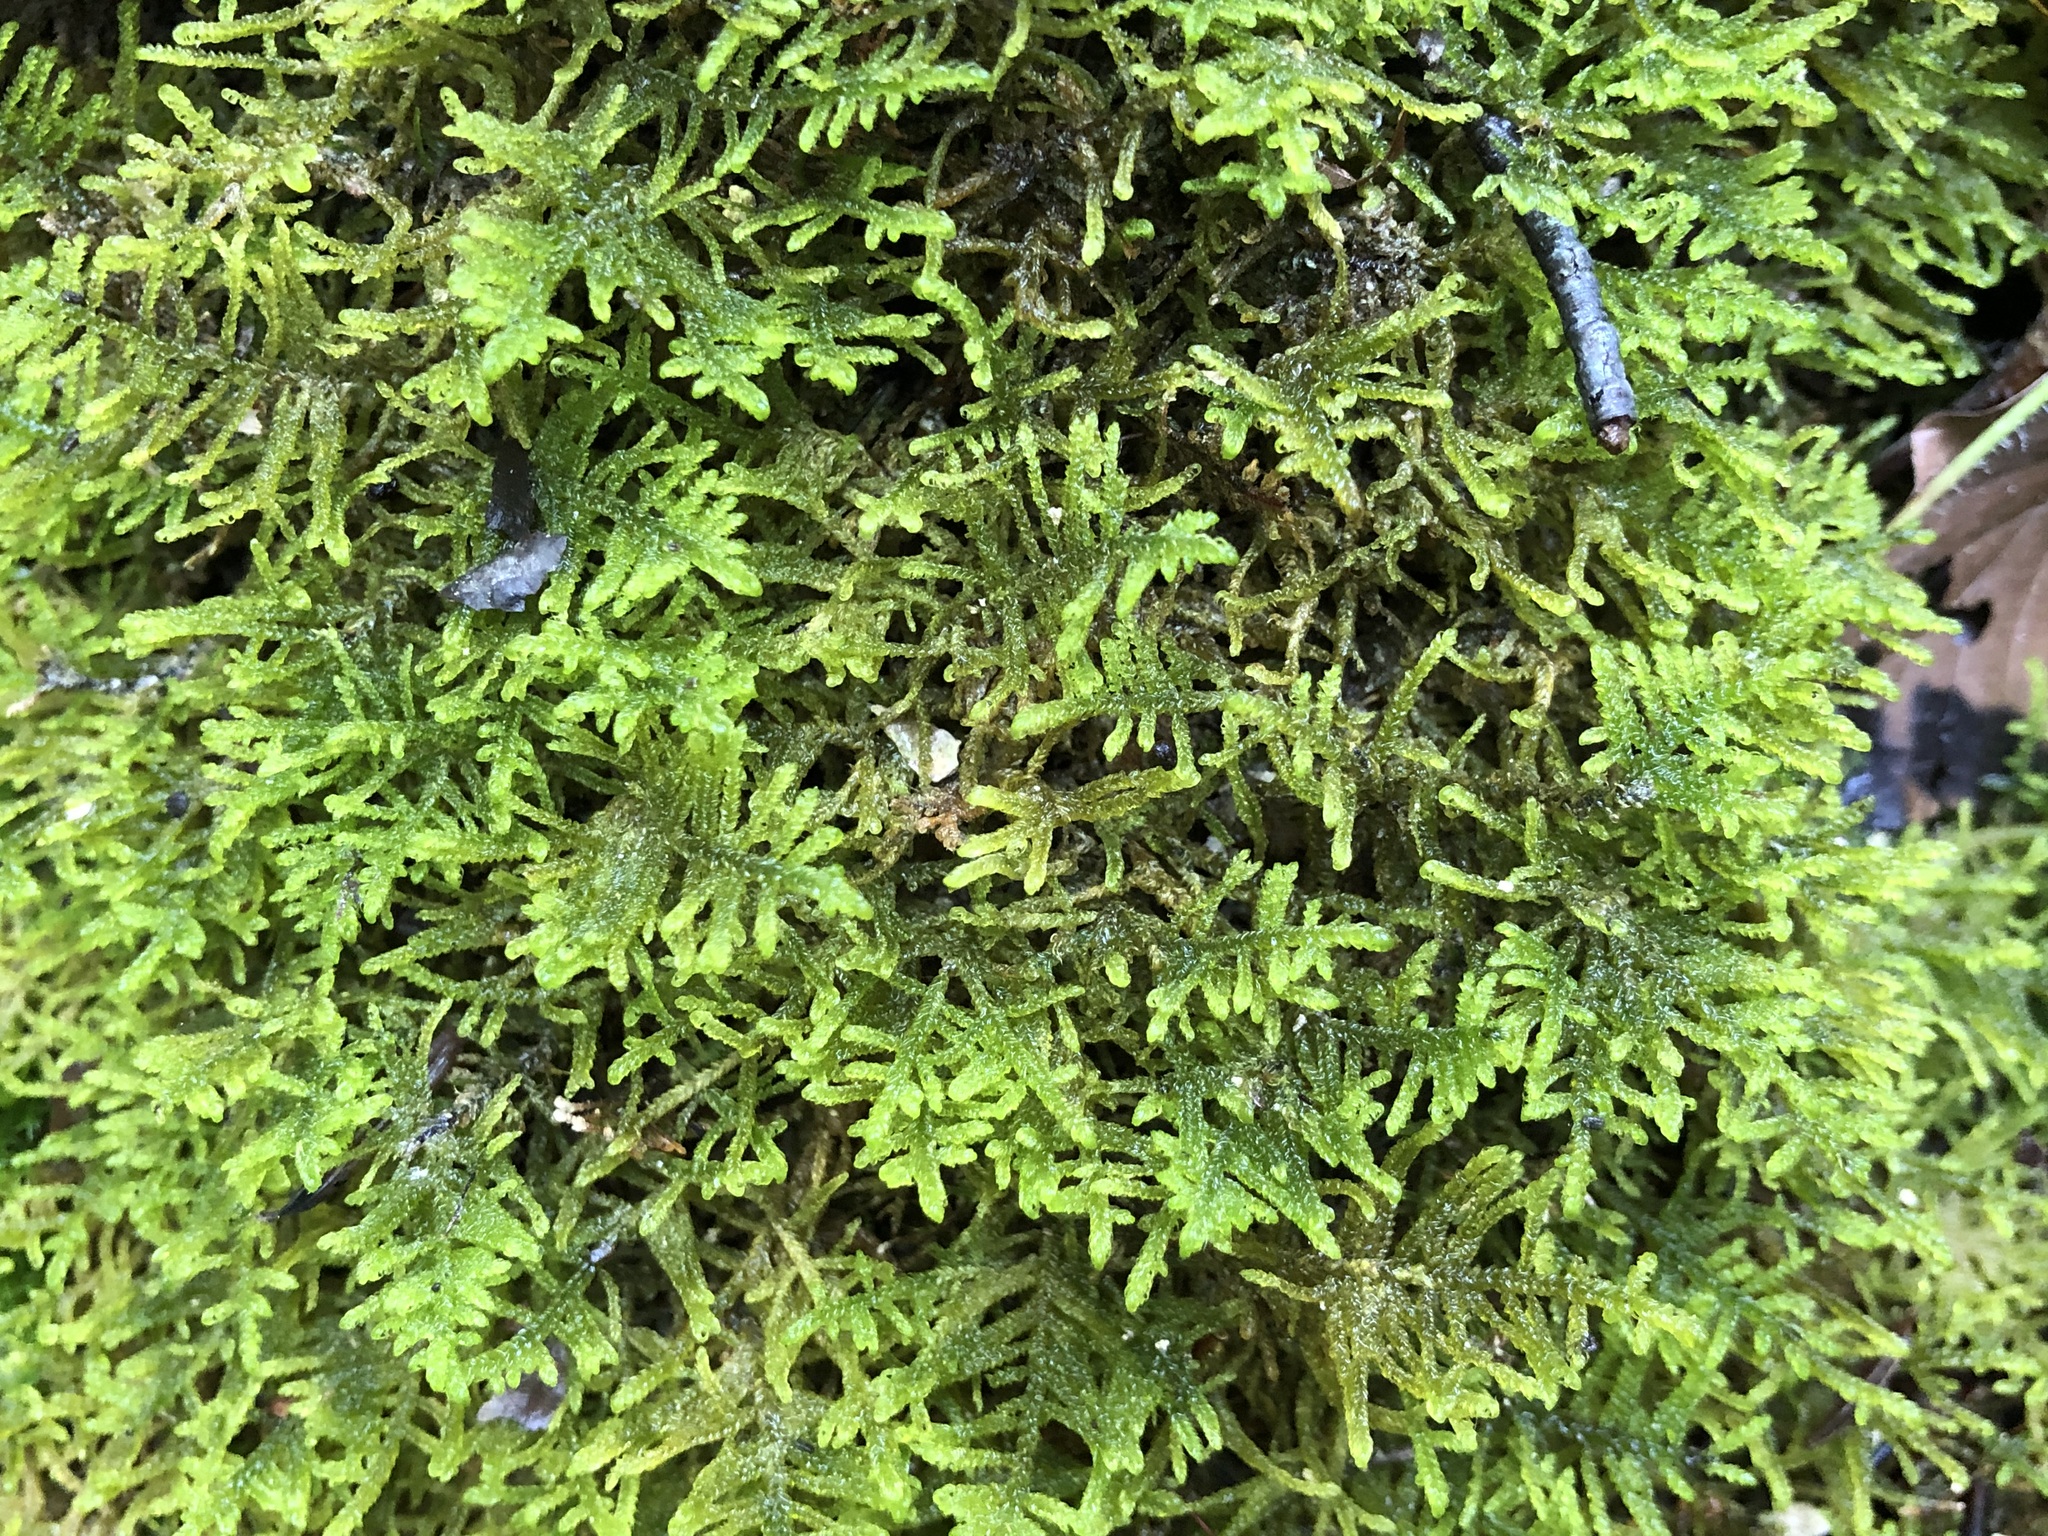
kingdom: Plantae
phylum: Bryophyta
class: Bryopsida
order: Hypnales
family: Amblystegiaceae
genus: Palustriella
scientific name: Palustriella commutata
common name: Curled hook-moss
